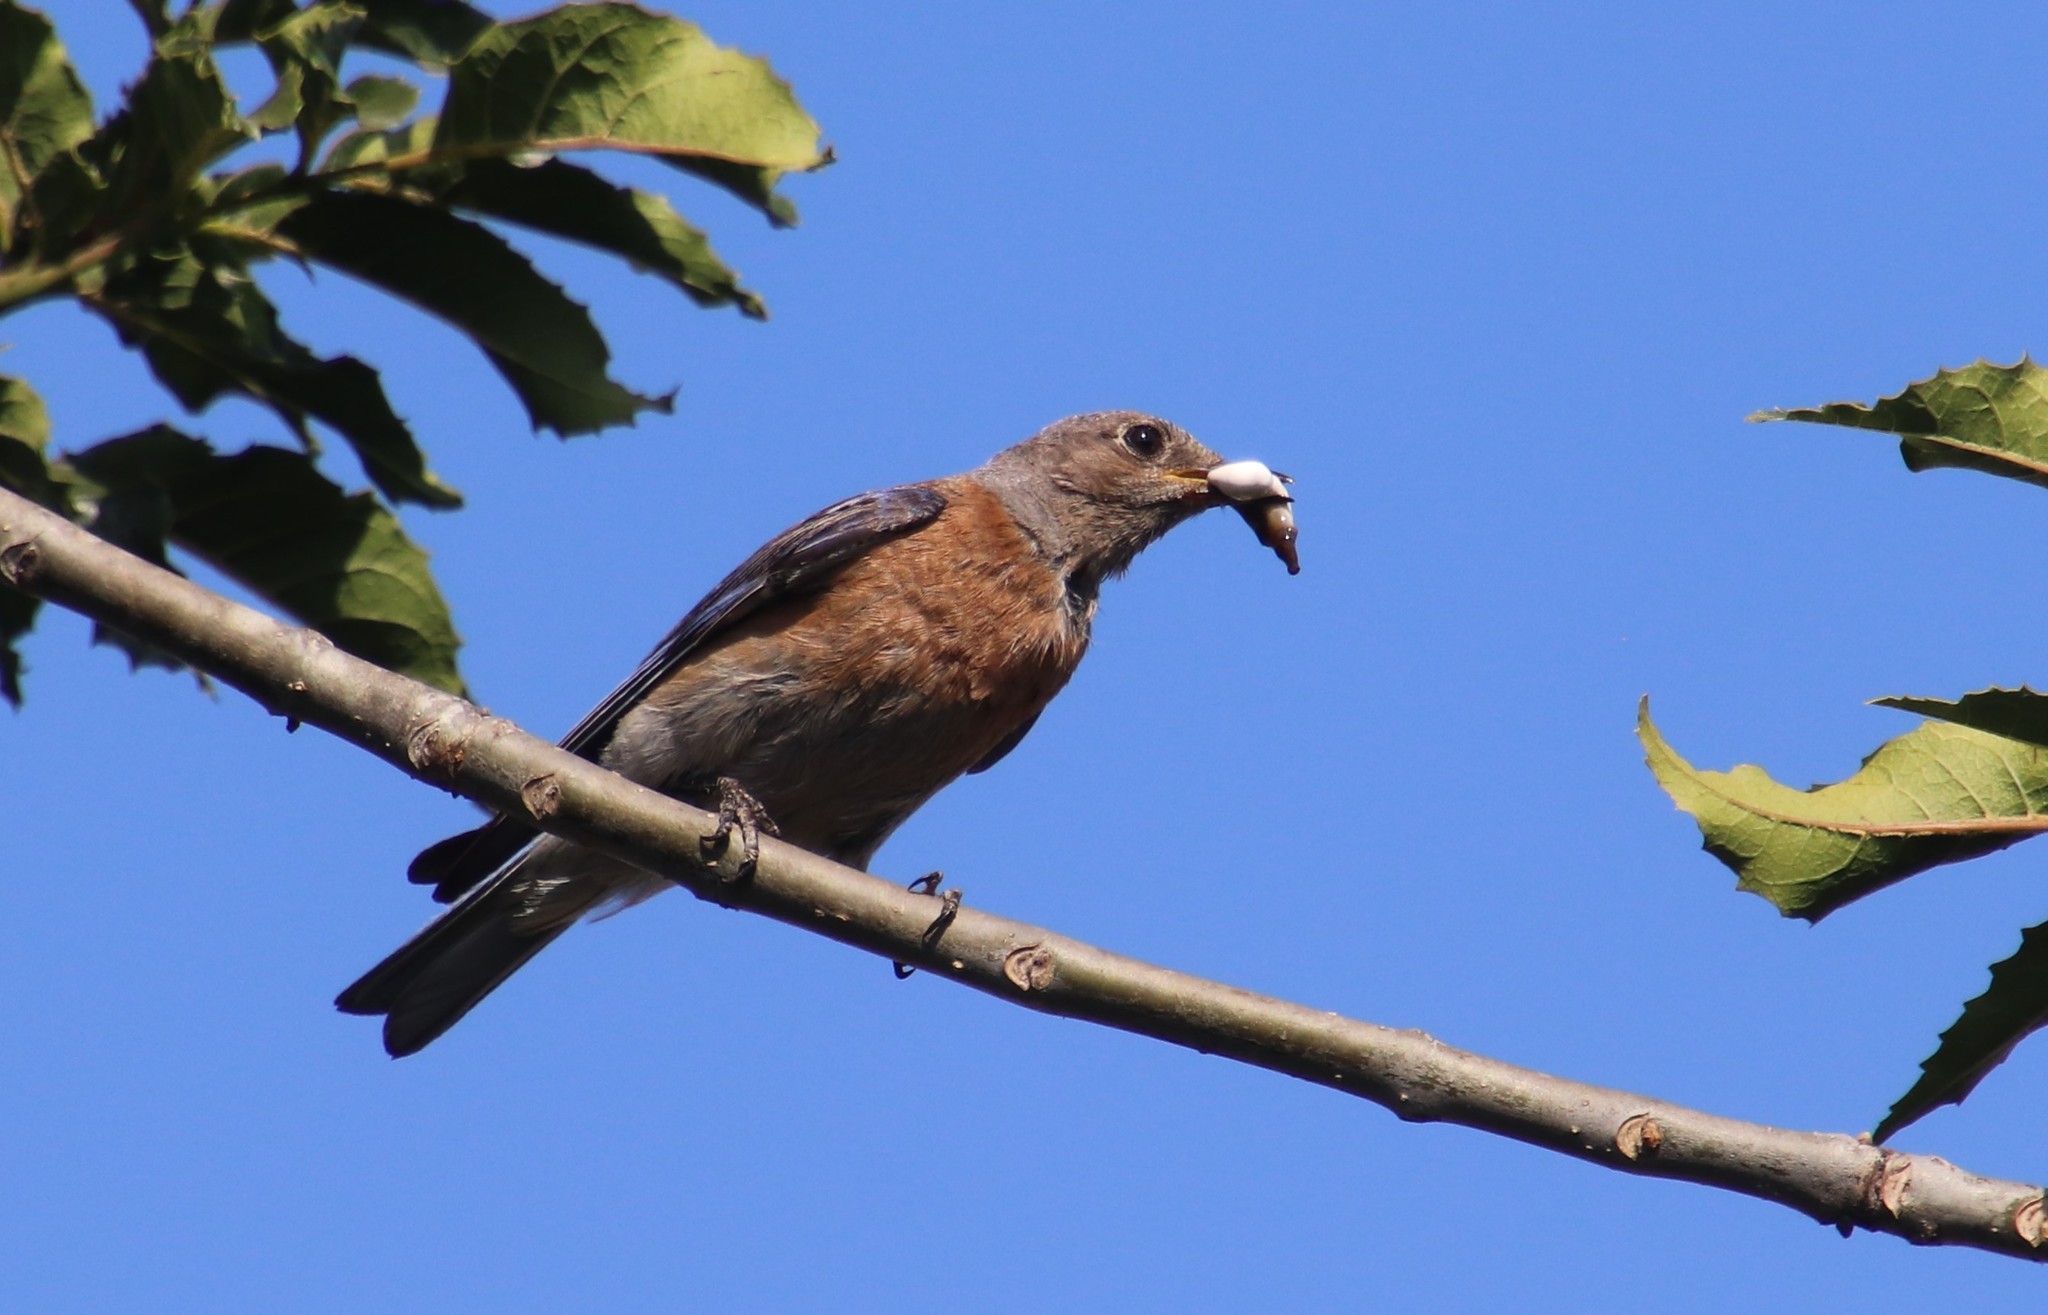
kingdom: Animalia
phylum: Chordata
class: Aves
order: Passeriformes
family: Turdidae
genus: Sialia
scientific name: Sialia mexicana
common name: Western bluebird
